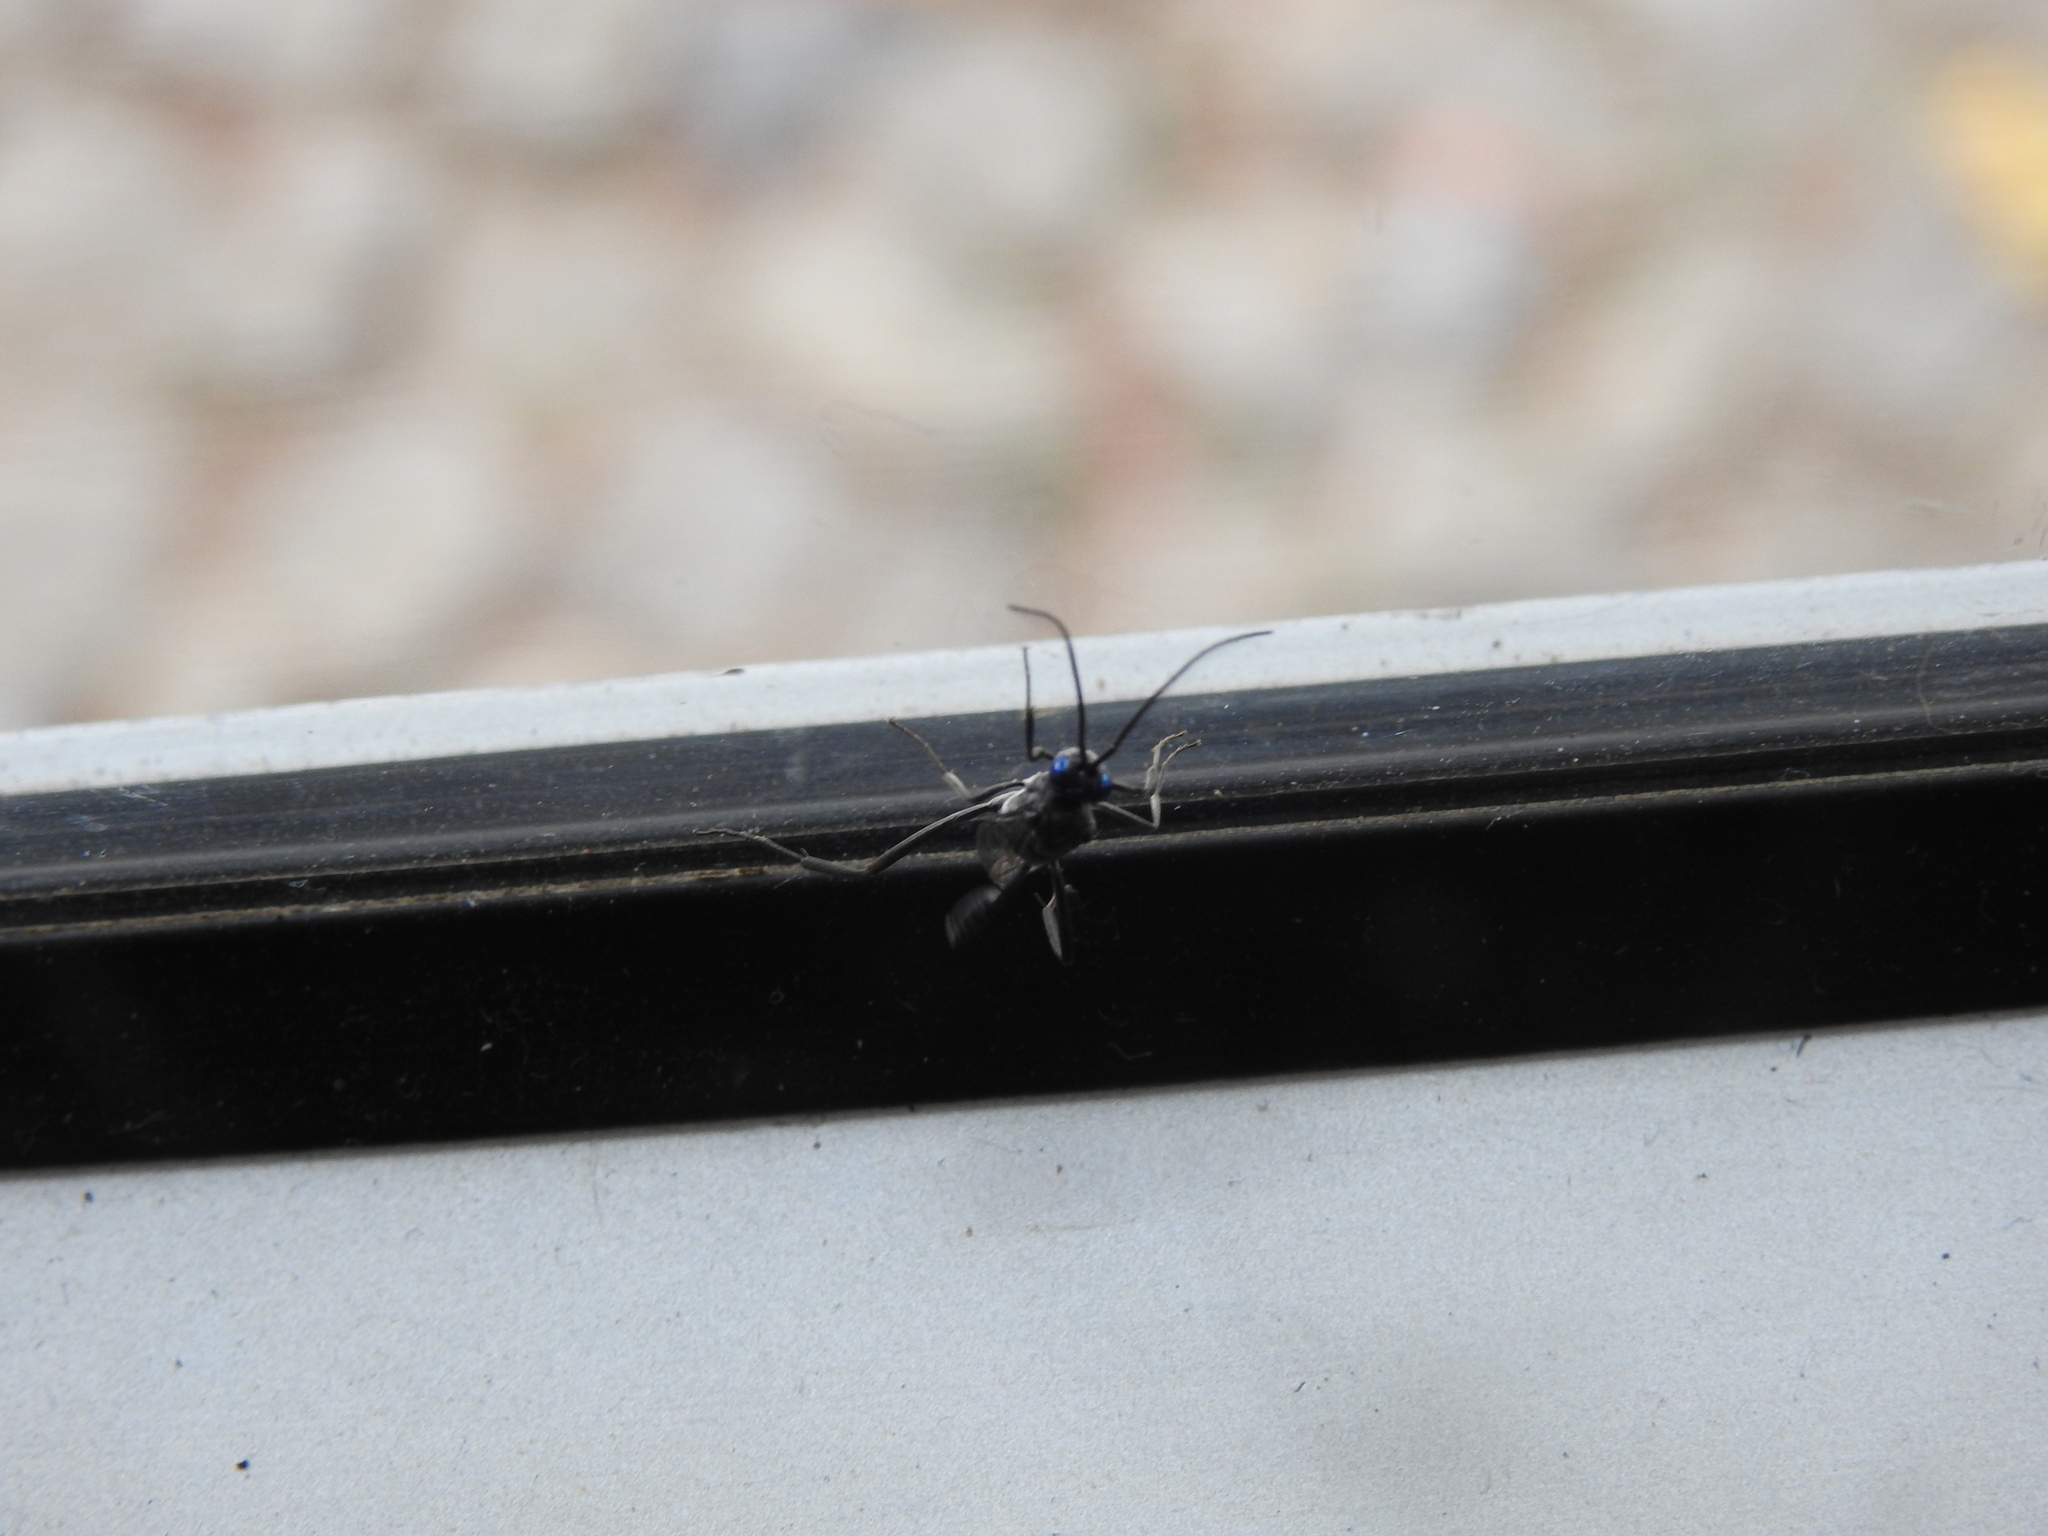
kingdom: Animalia
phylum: Arthropoda
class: Insecta
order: Hymenoptera
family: Evaniidae
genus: Evania
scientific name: Evania appendigaster
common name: Ensign wasp
